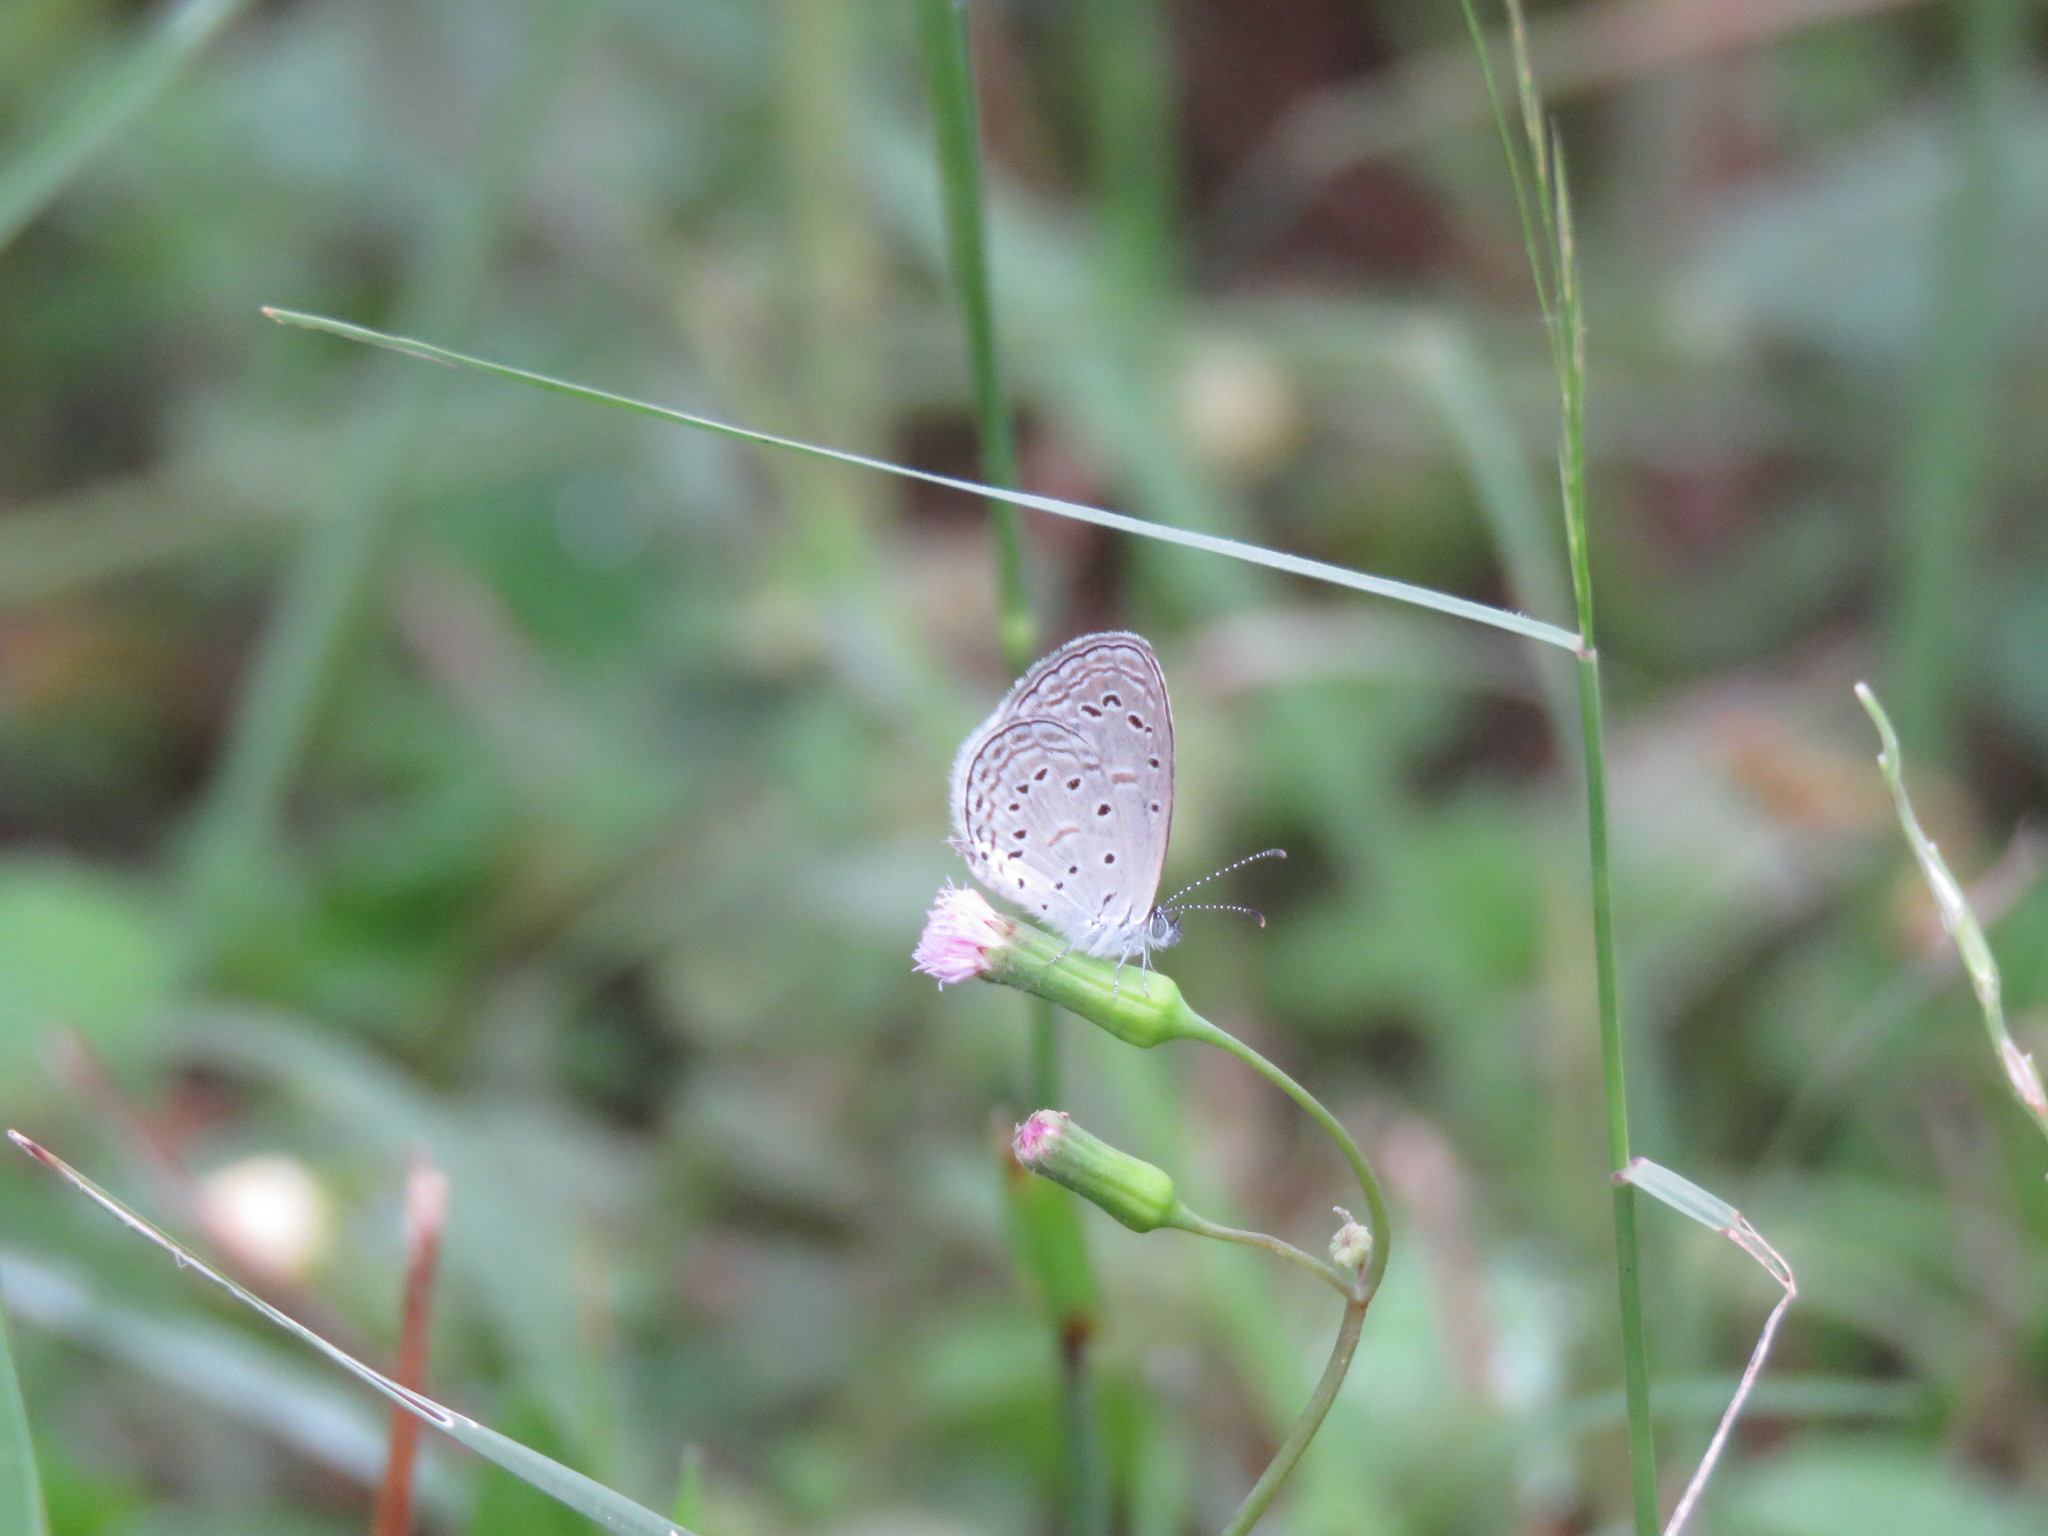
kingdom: Animalia
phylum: Arthropoda
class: Insecta
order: Lepidoptera
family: Lycaenidae
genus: Zizula
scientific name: Zizula hylax
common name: Gaika blue
